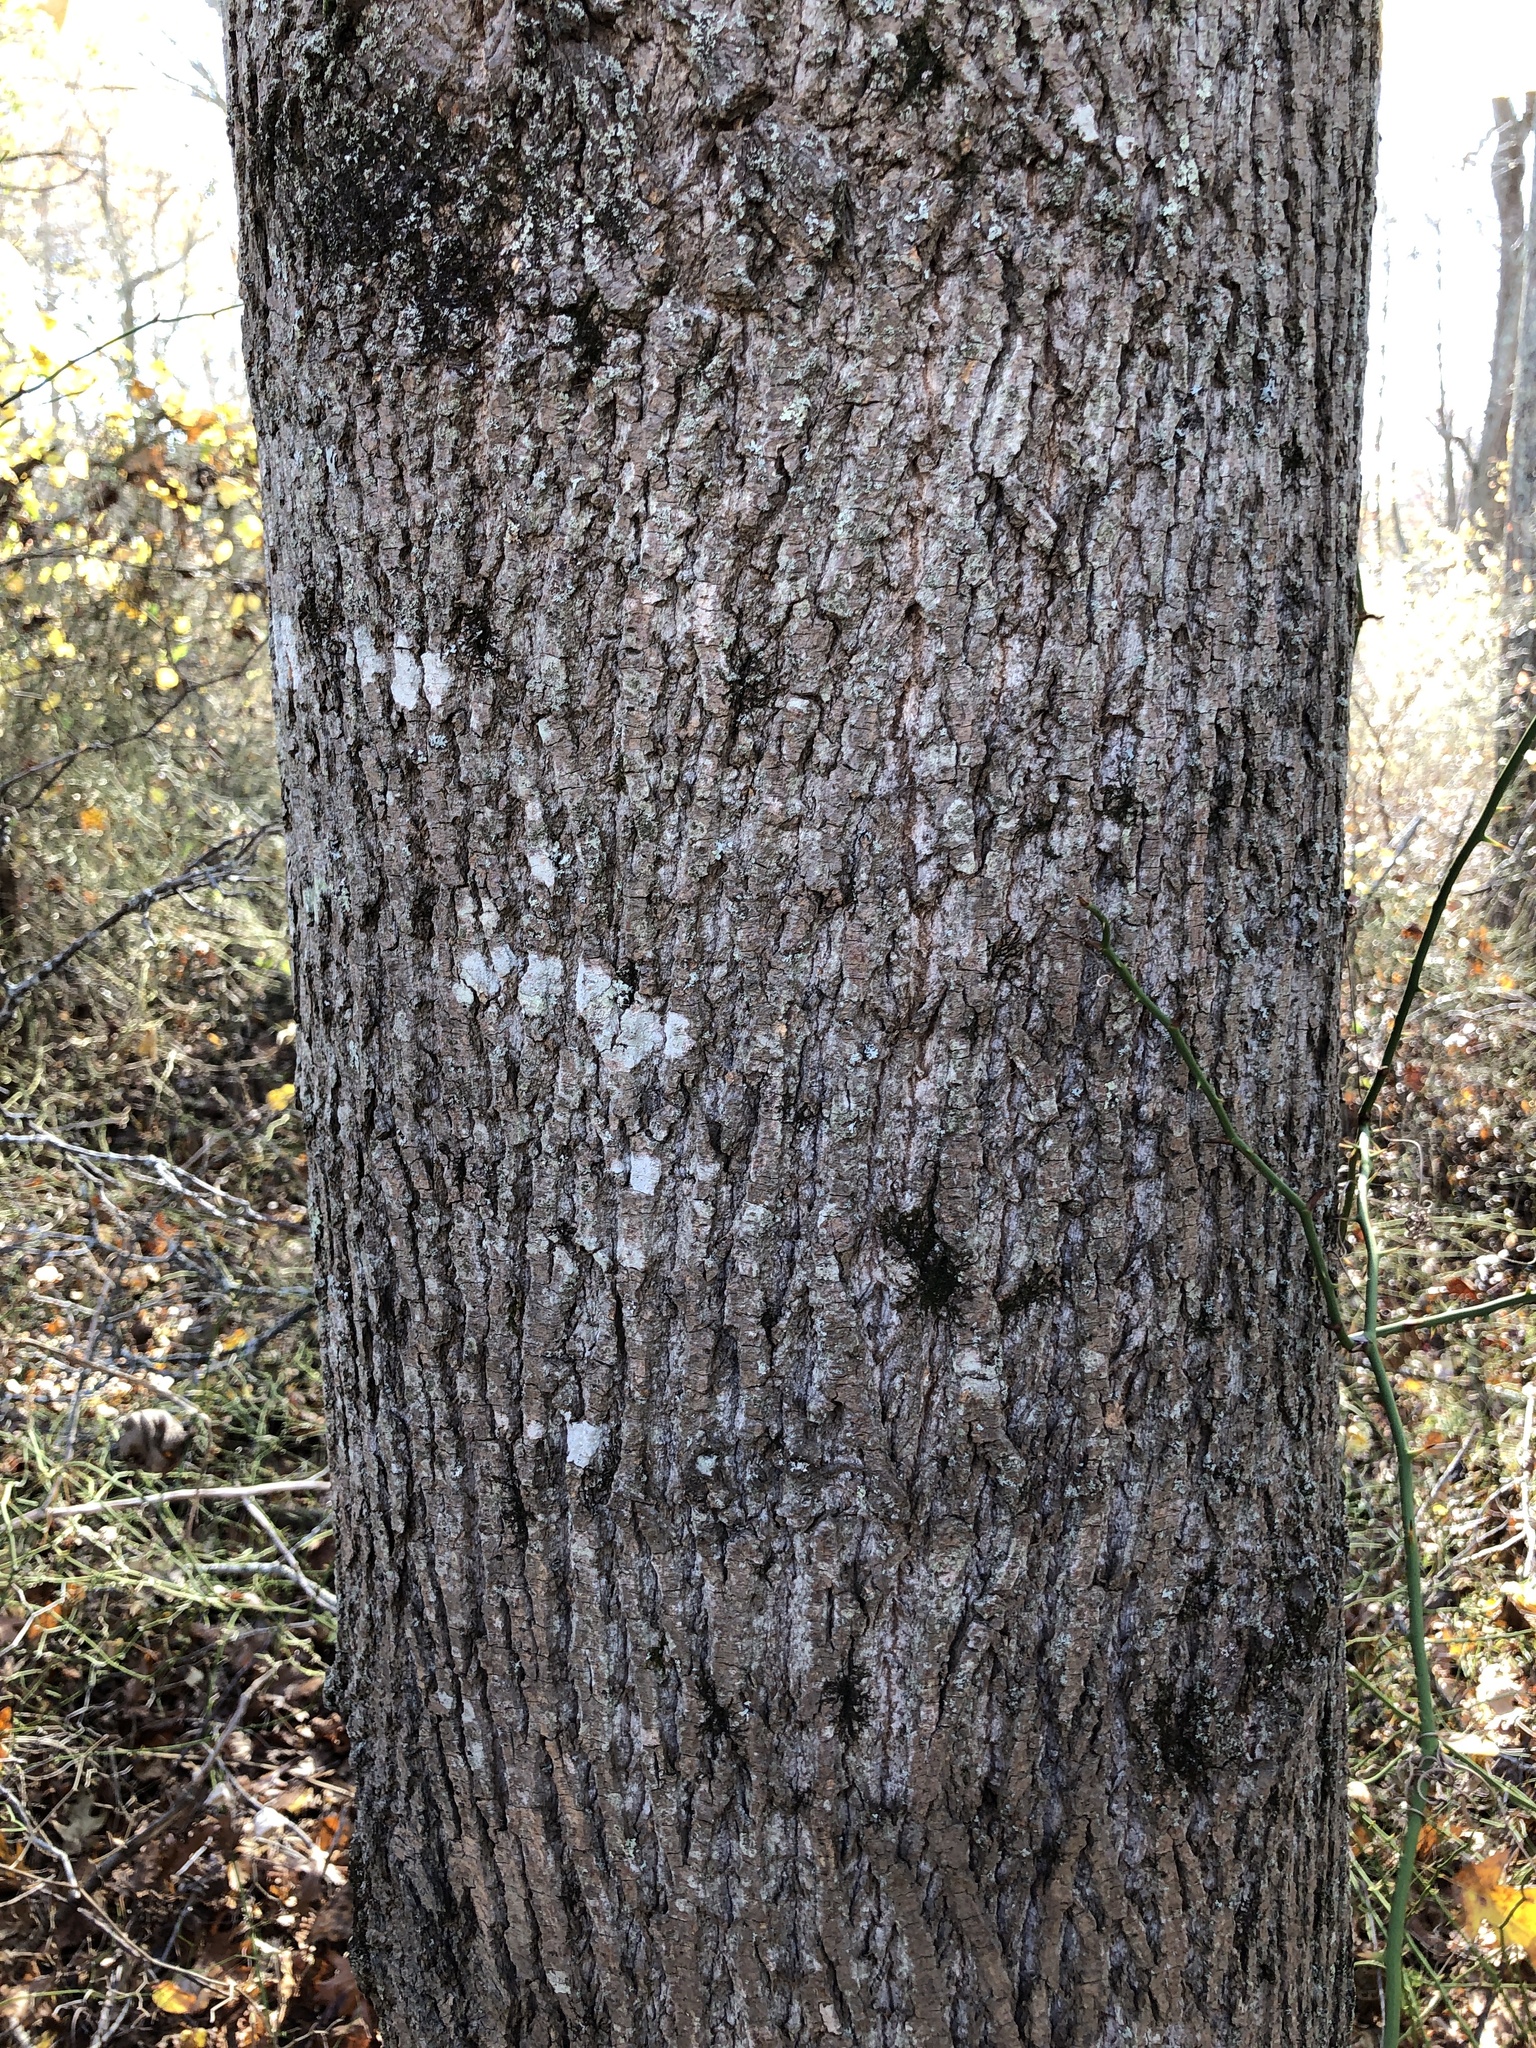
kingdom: Plantae
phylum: Tracheophyta
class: Magnoliopsida
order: Magnoliales
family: Magnoliaceae
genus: Liriodendron
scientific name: Liriodendron tulipifera
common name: Tulip tree
